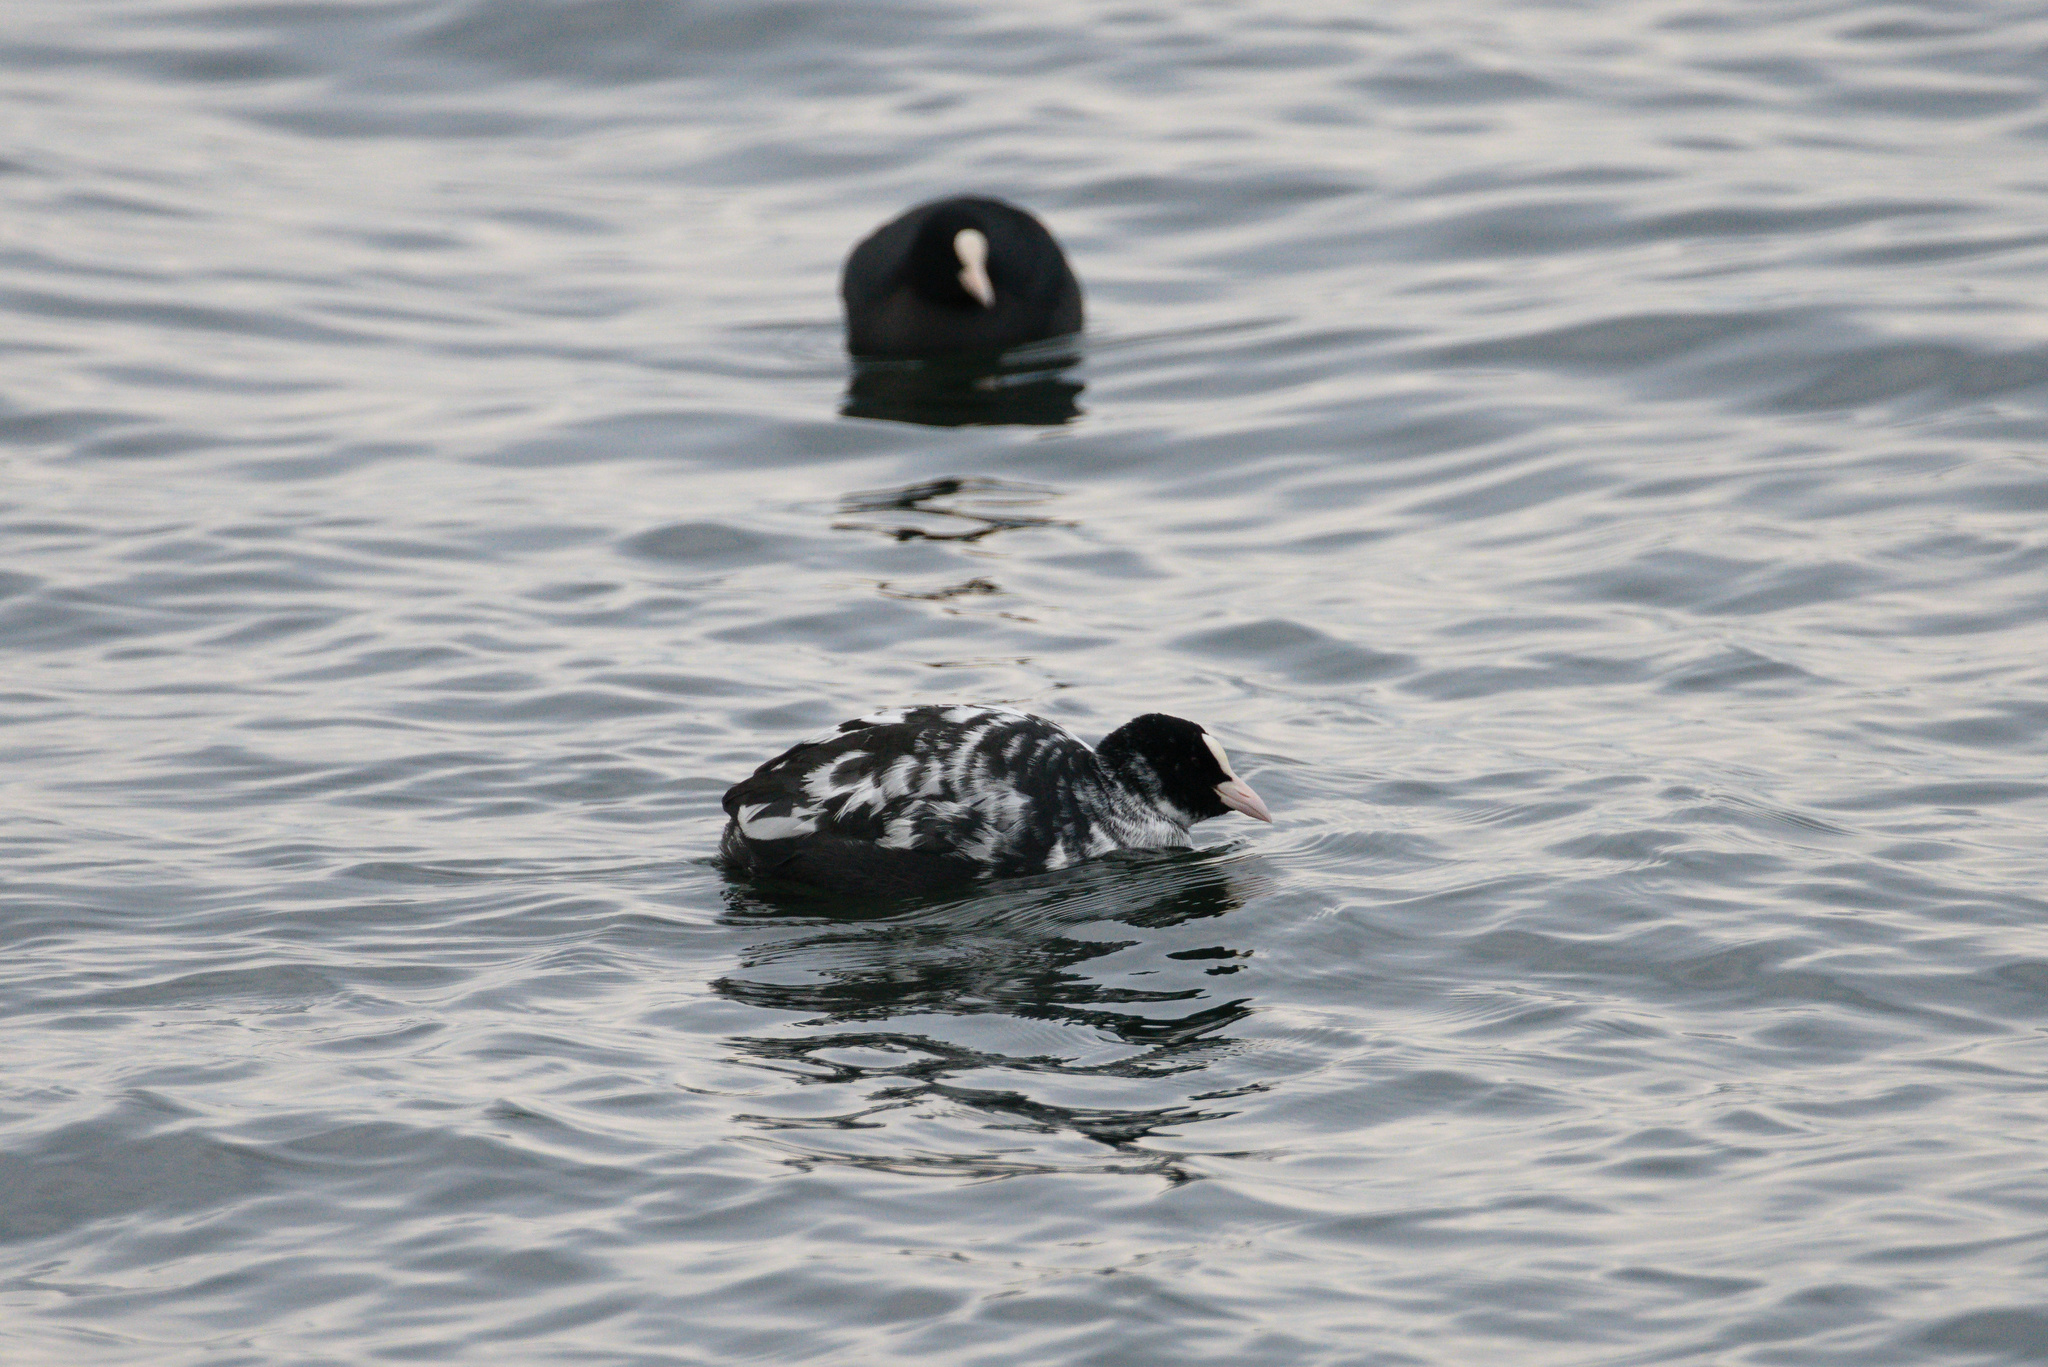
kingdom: Animalia
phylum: Chordata
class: Aves
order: Gruiformes
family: Rallidae
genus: Fulica
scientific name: Fulica atra
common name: Eurasian coot
